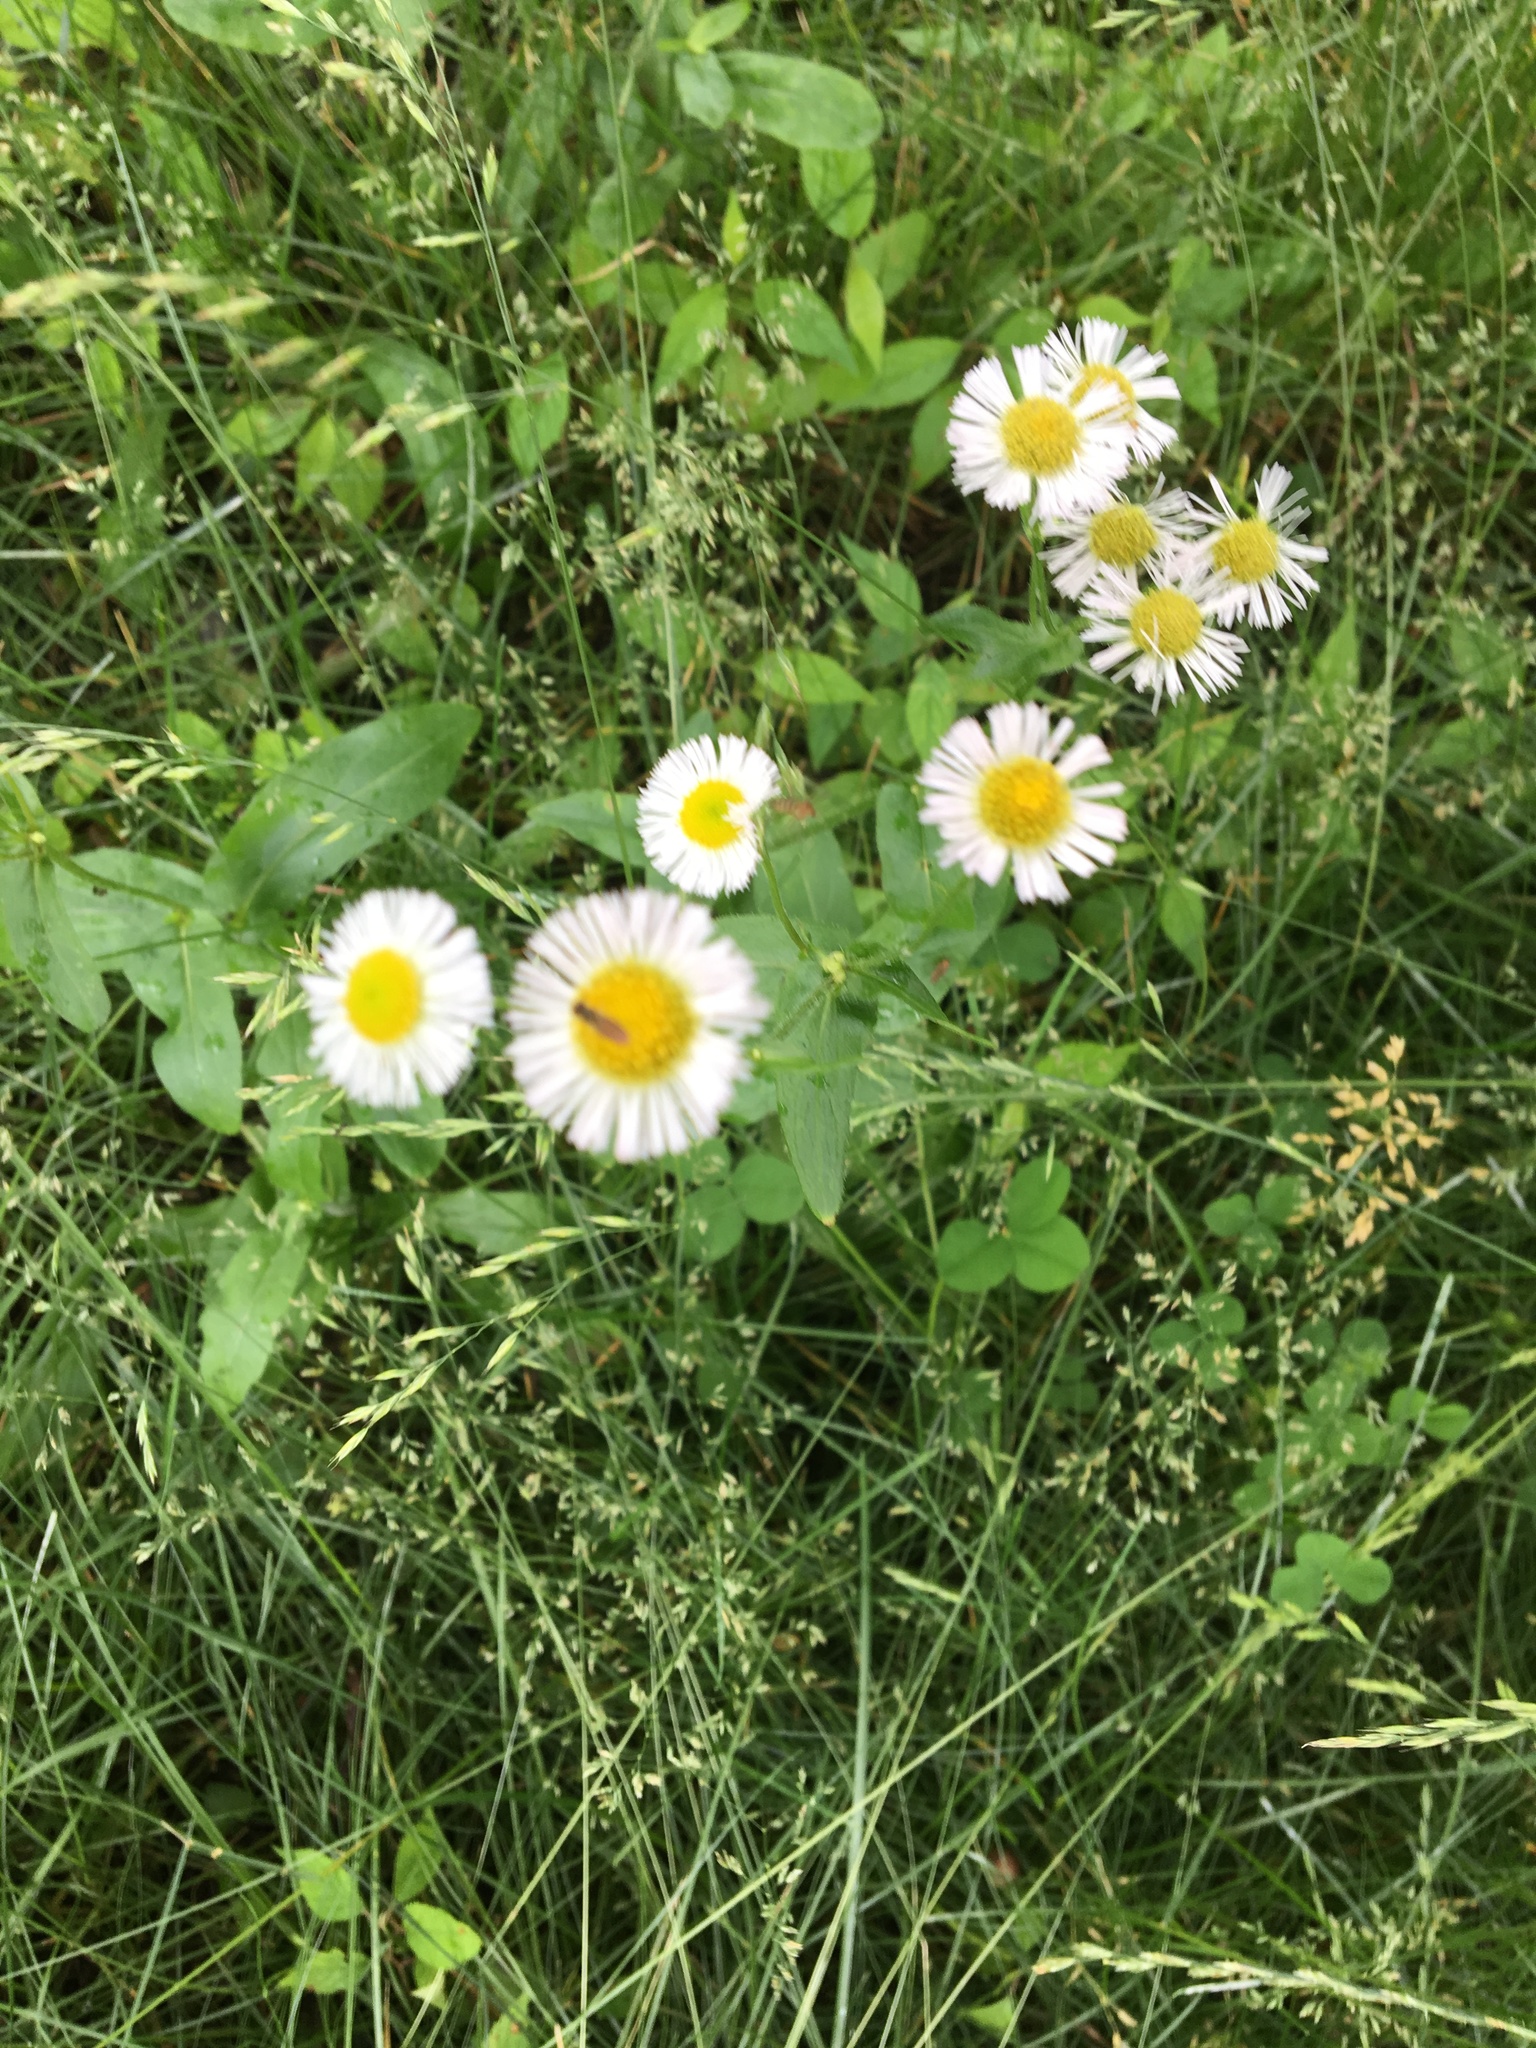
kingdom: Plantae
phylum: Tracheophyta
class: Magnoliopsida
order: Asterales
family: Asteraceae
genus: Erigeron
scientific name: Erigeron philadelphicus
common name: Robin's-plantain
